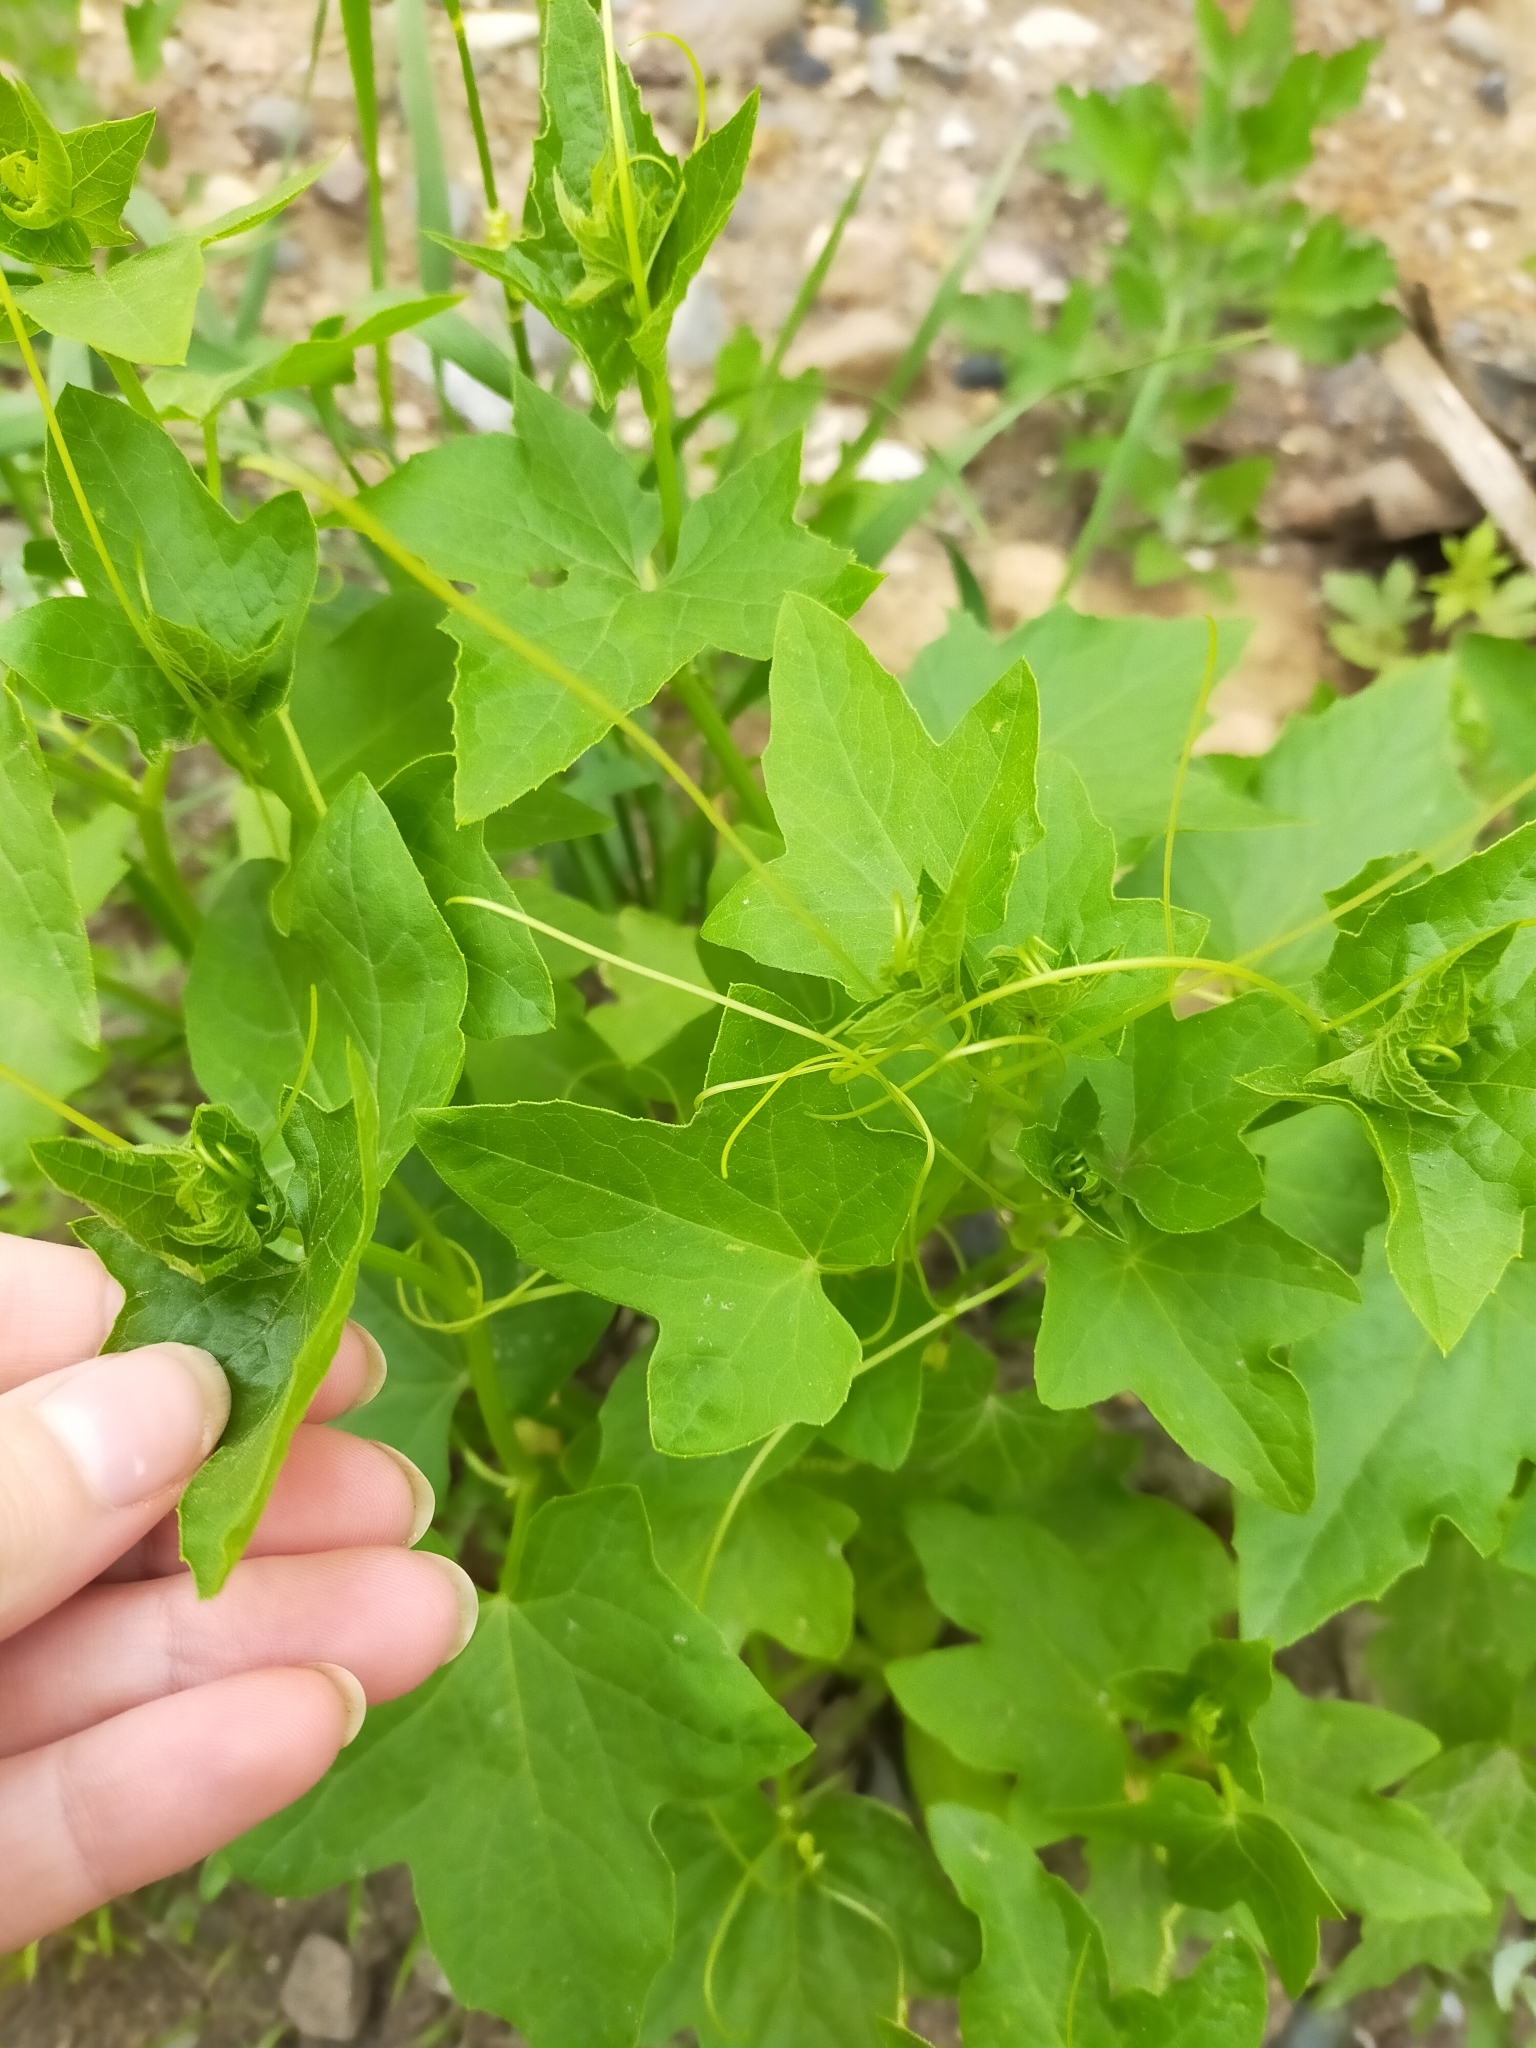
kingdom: Plantae
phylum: Tracheophyta
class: Magnoliopsida
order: Cucurbitales
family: Cucurbitaceae
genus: Echinocystis
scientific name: Echinocystis lobata
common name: Wild cucumber
